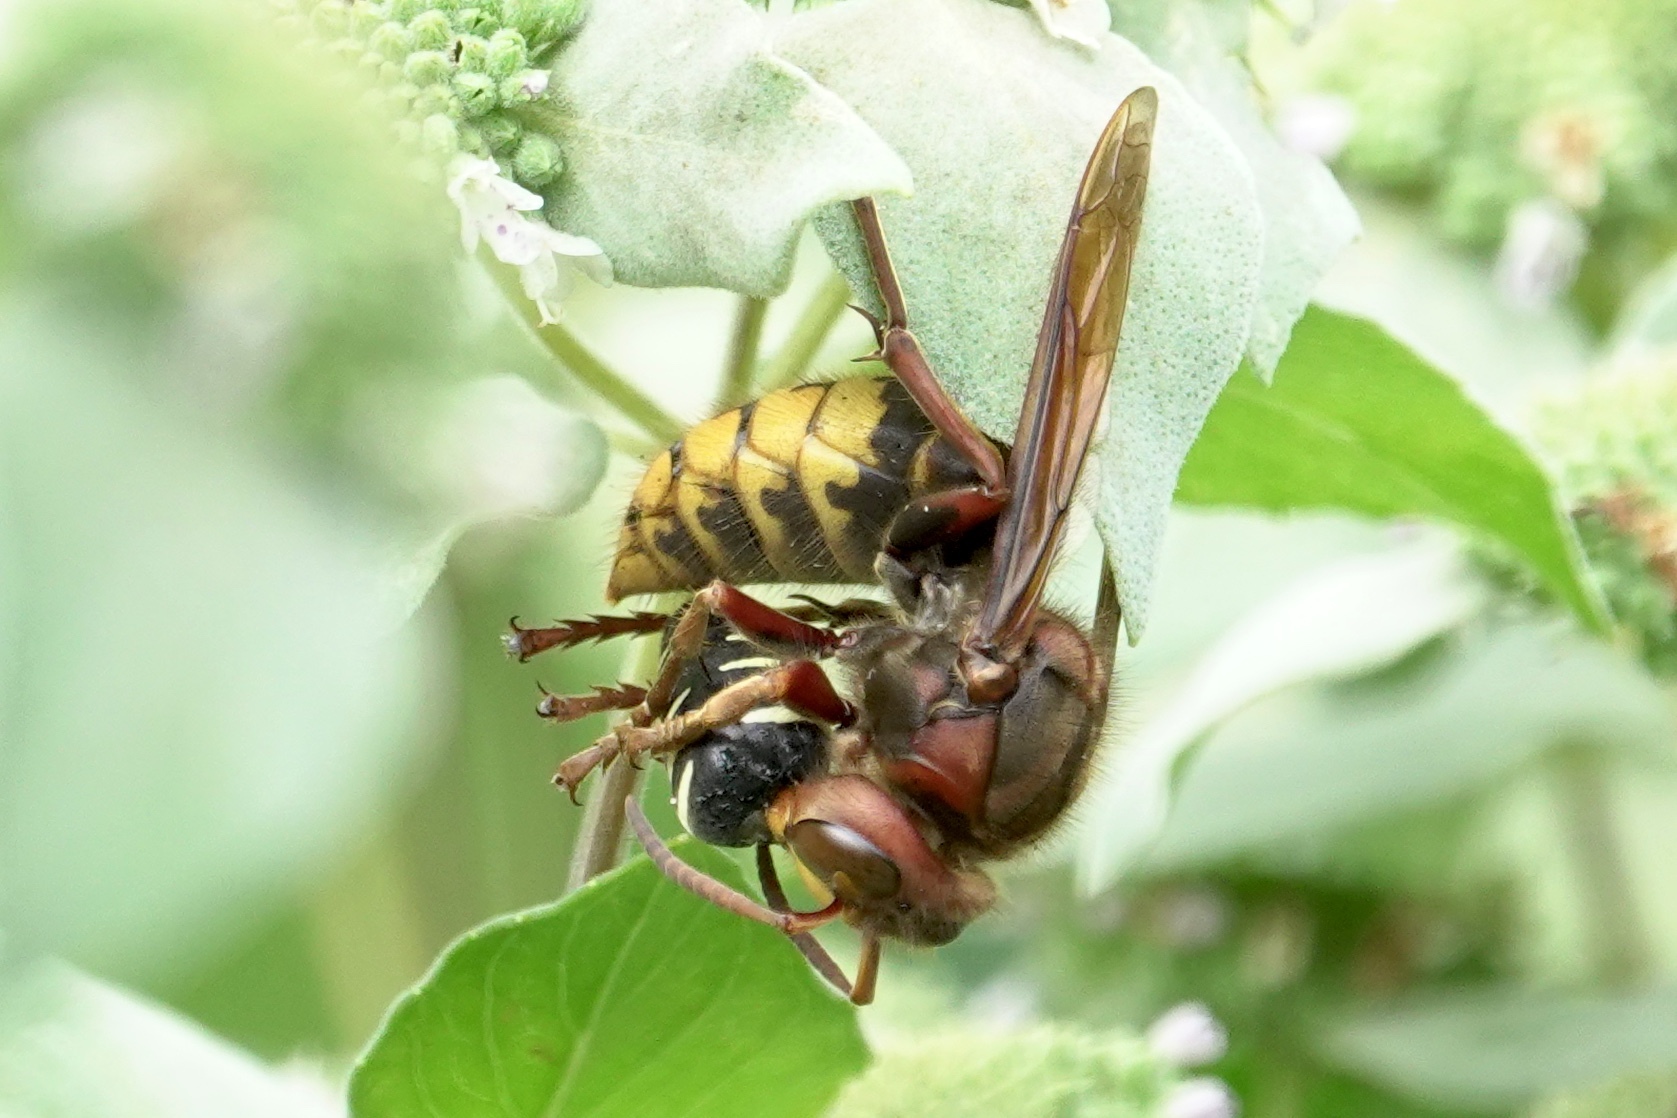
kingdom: Animalia
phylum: Arthropoda
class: Insecta
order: Hymenoptera
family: Vespidae
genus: Vespa
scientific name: Vespa crabro
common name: Hornet
